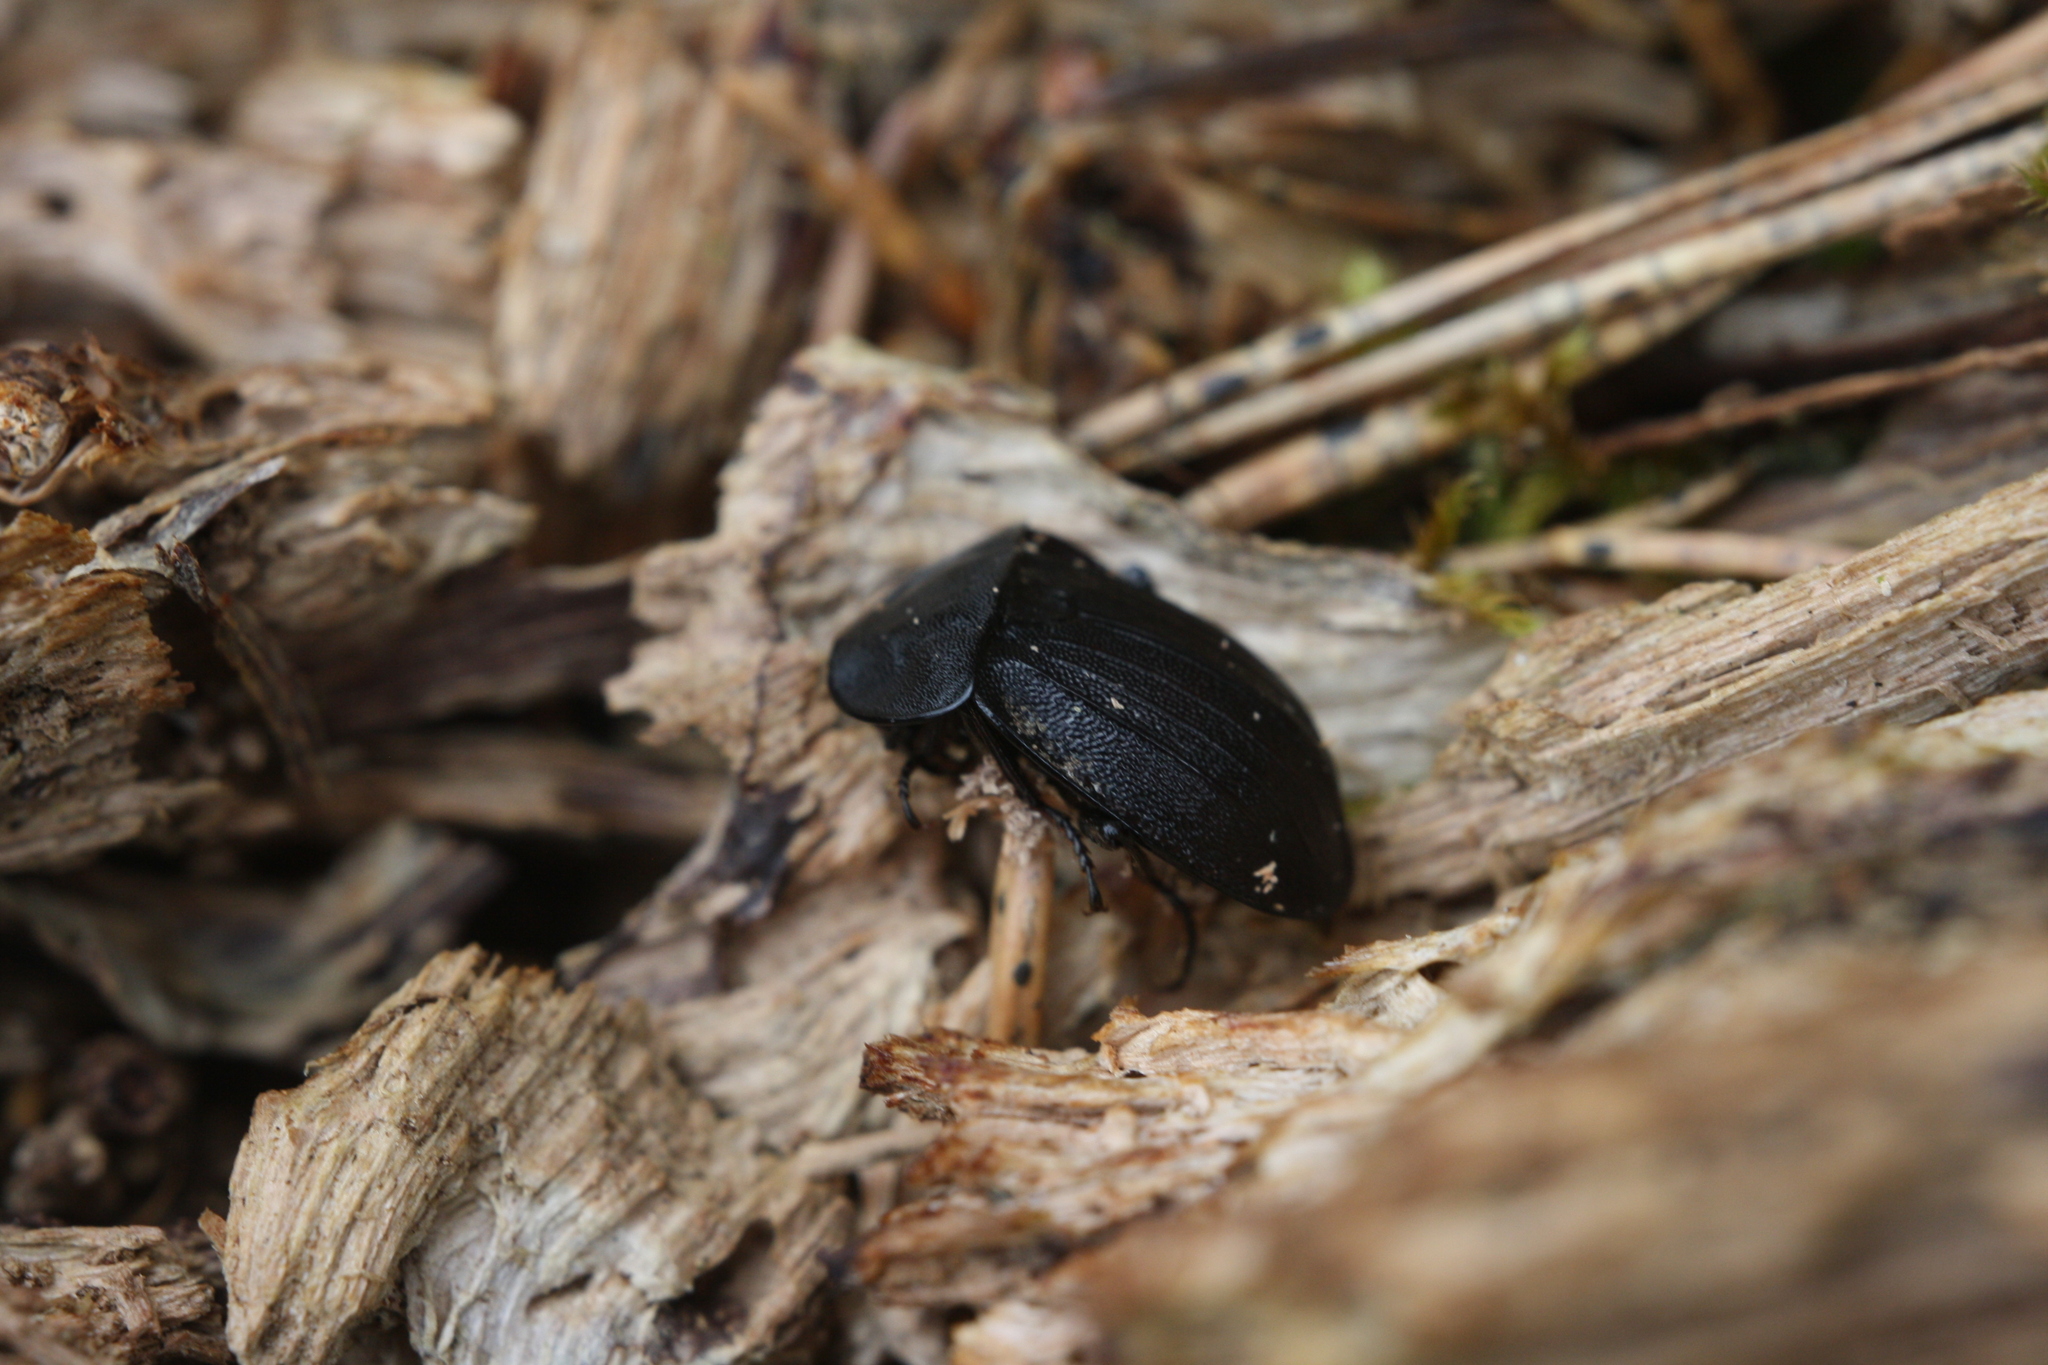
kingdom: Animalia
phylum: Arthropoda
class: Insecta
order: Coleoptera
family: Staphylinidae
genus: Silpha
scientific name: Silpha atrata
